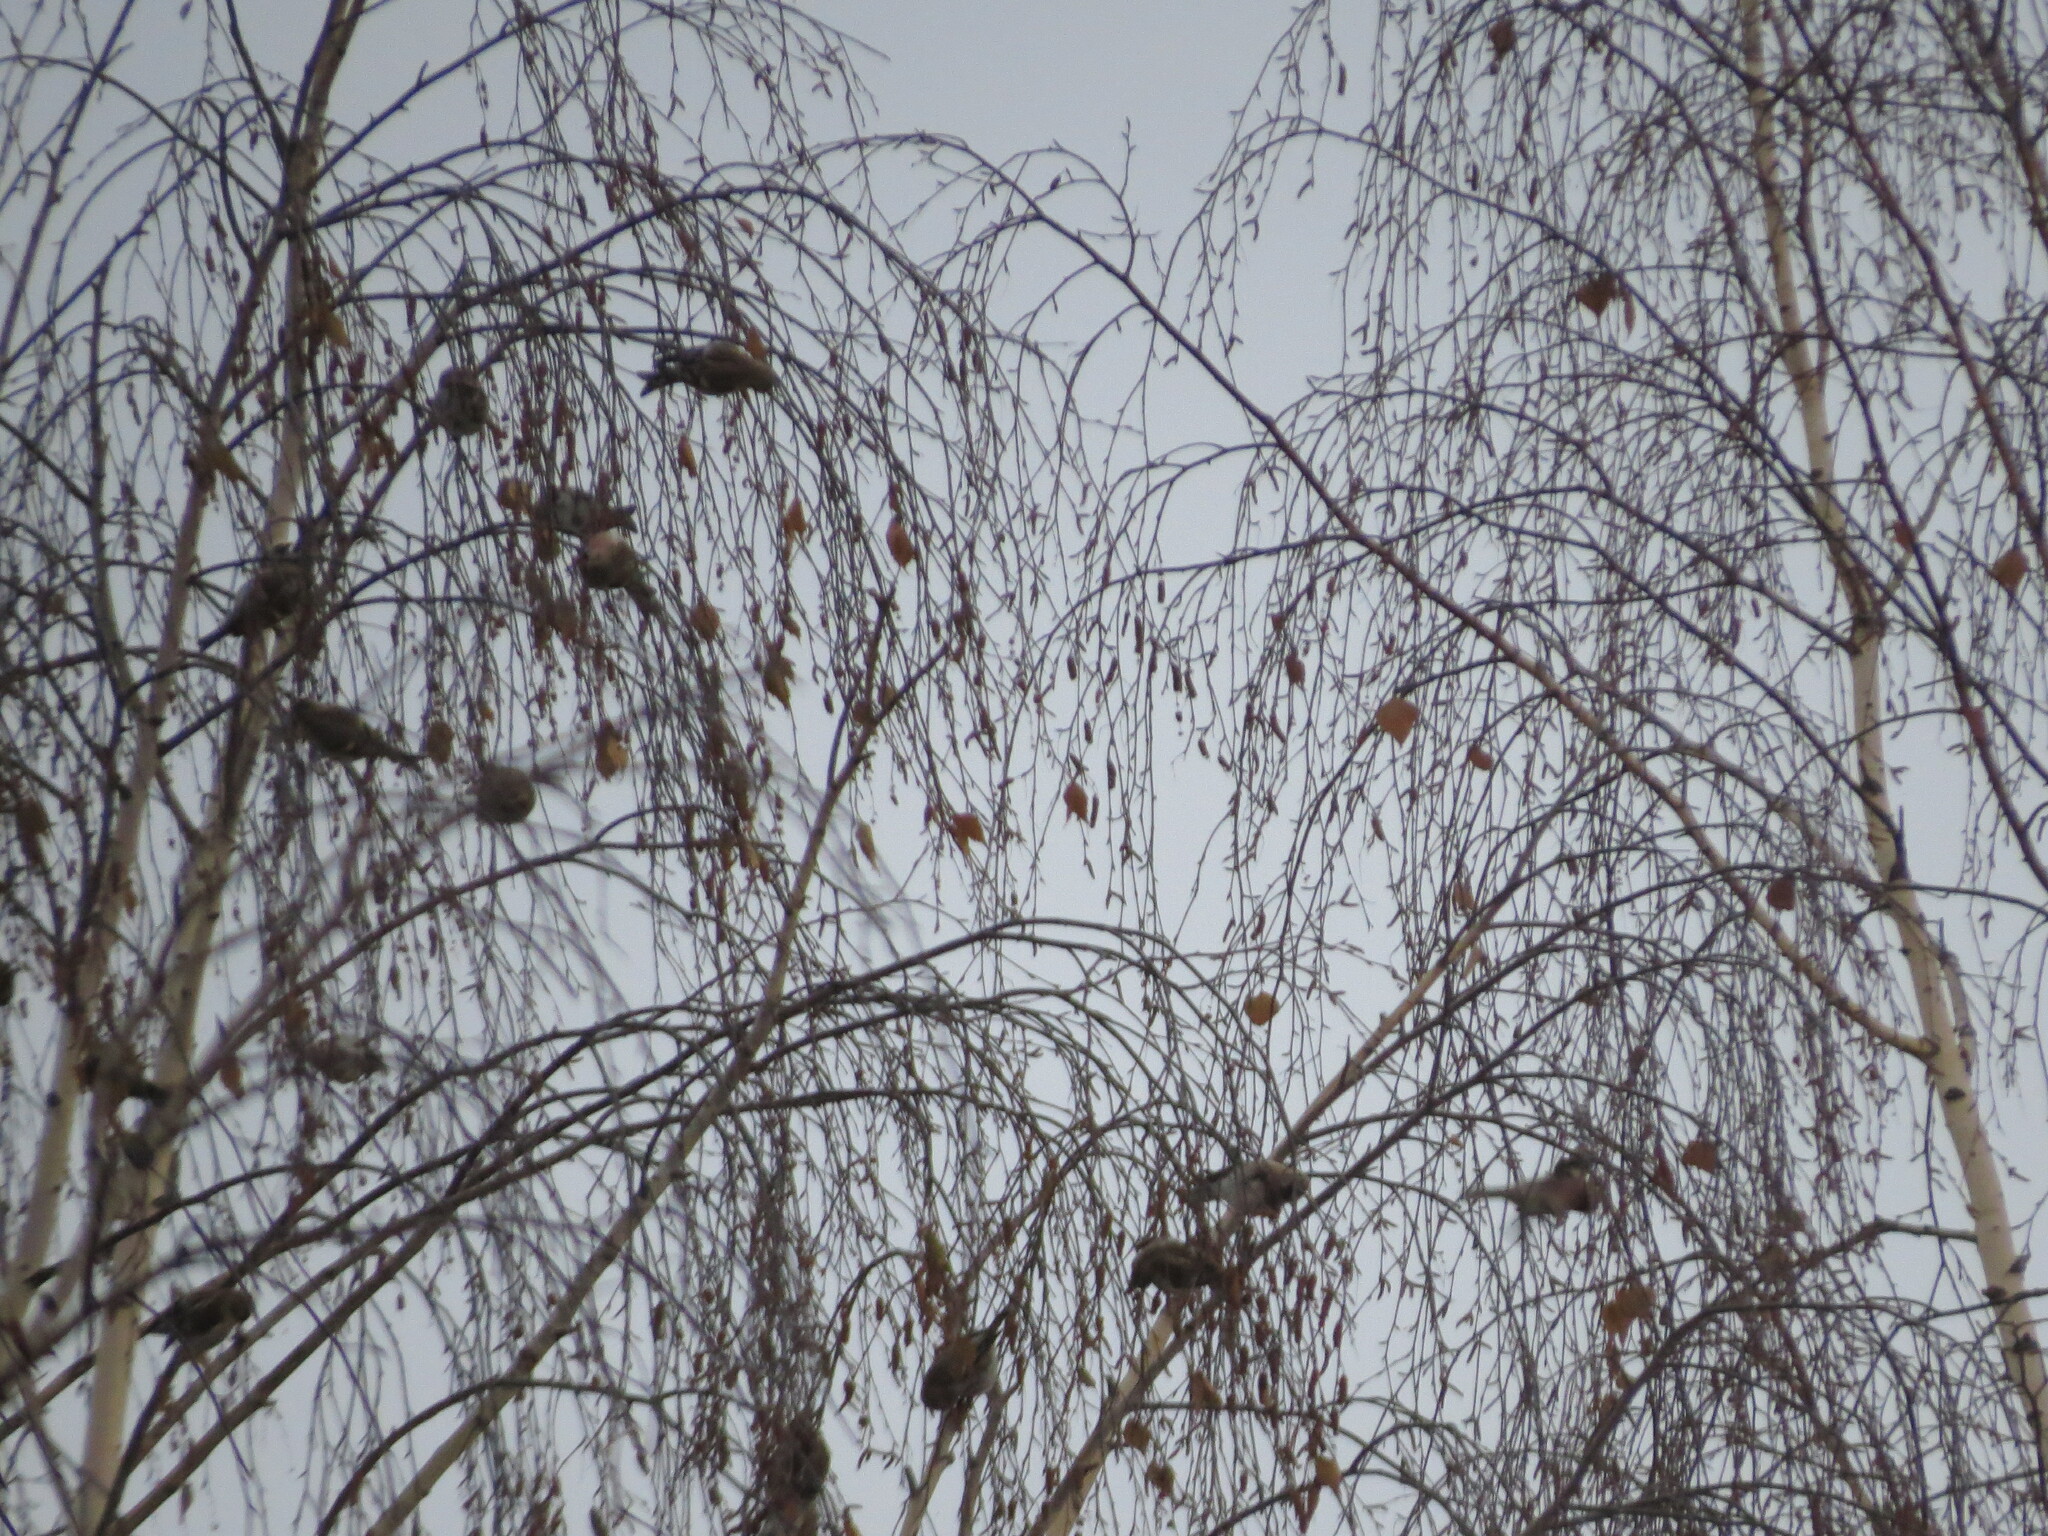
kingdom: Animalia
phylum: Chordata
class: Aves
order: Passeriformes
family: Fringillidae
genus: Acanthis
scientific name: Acanthis flammea
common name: Common redpoll
